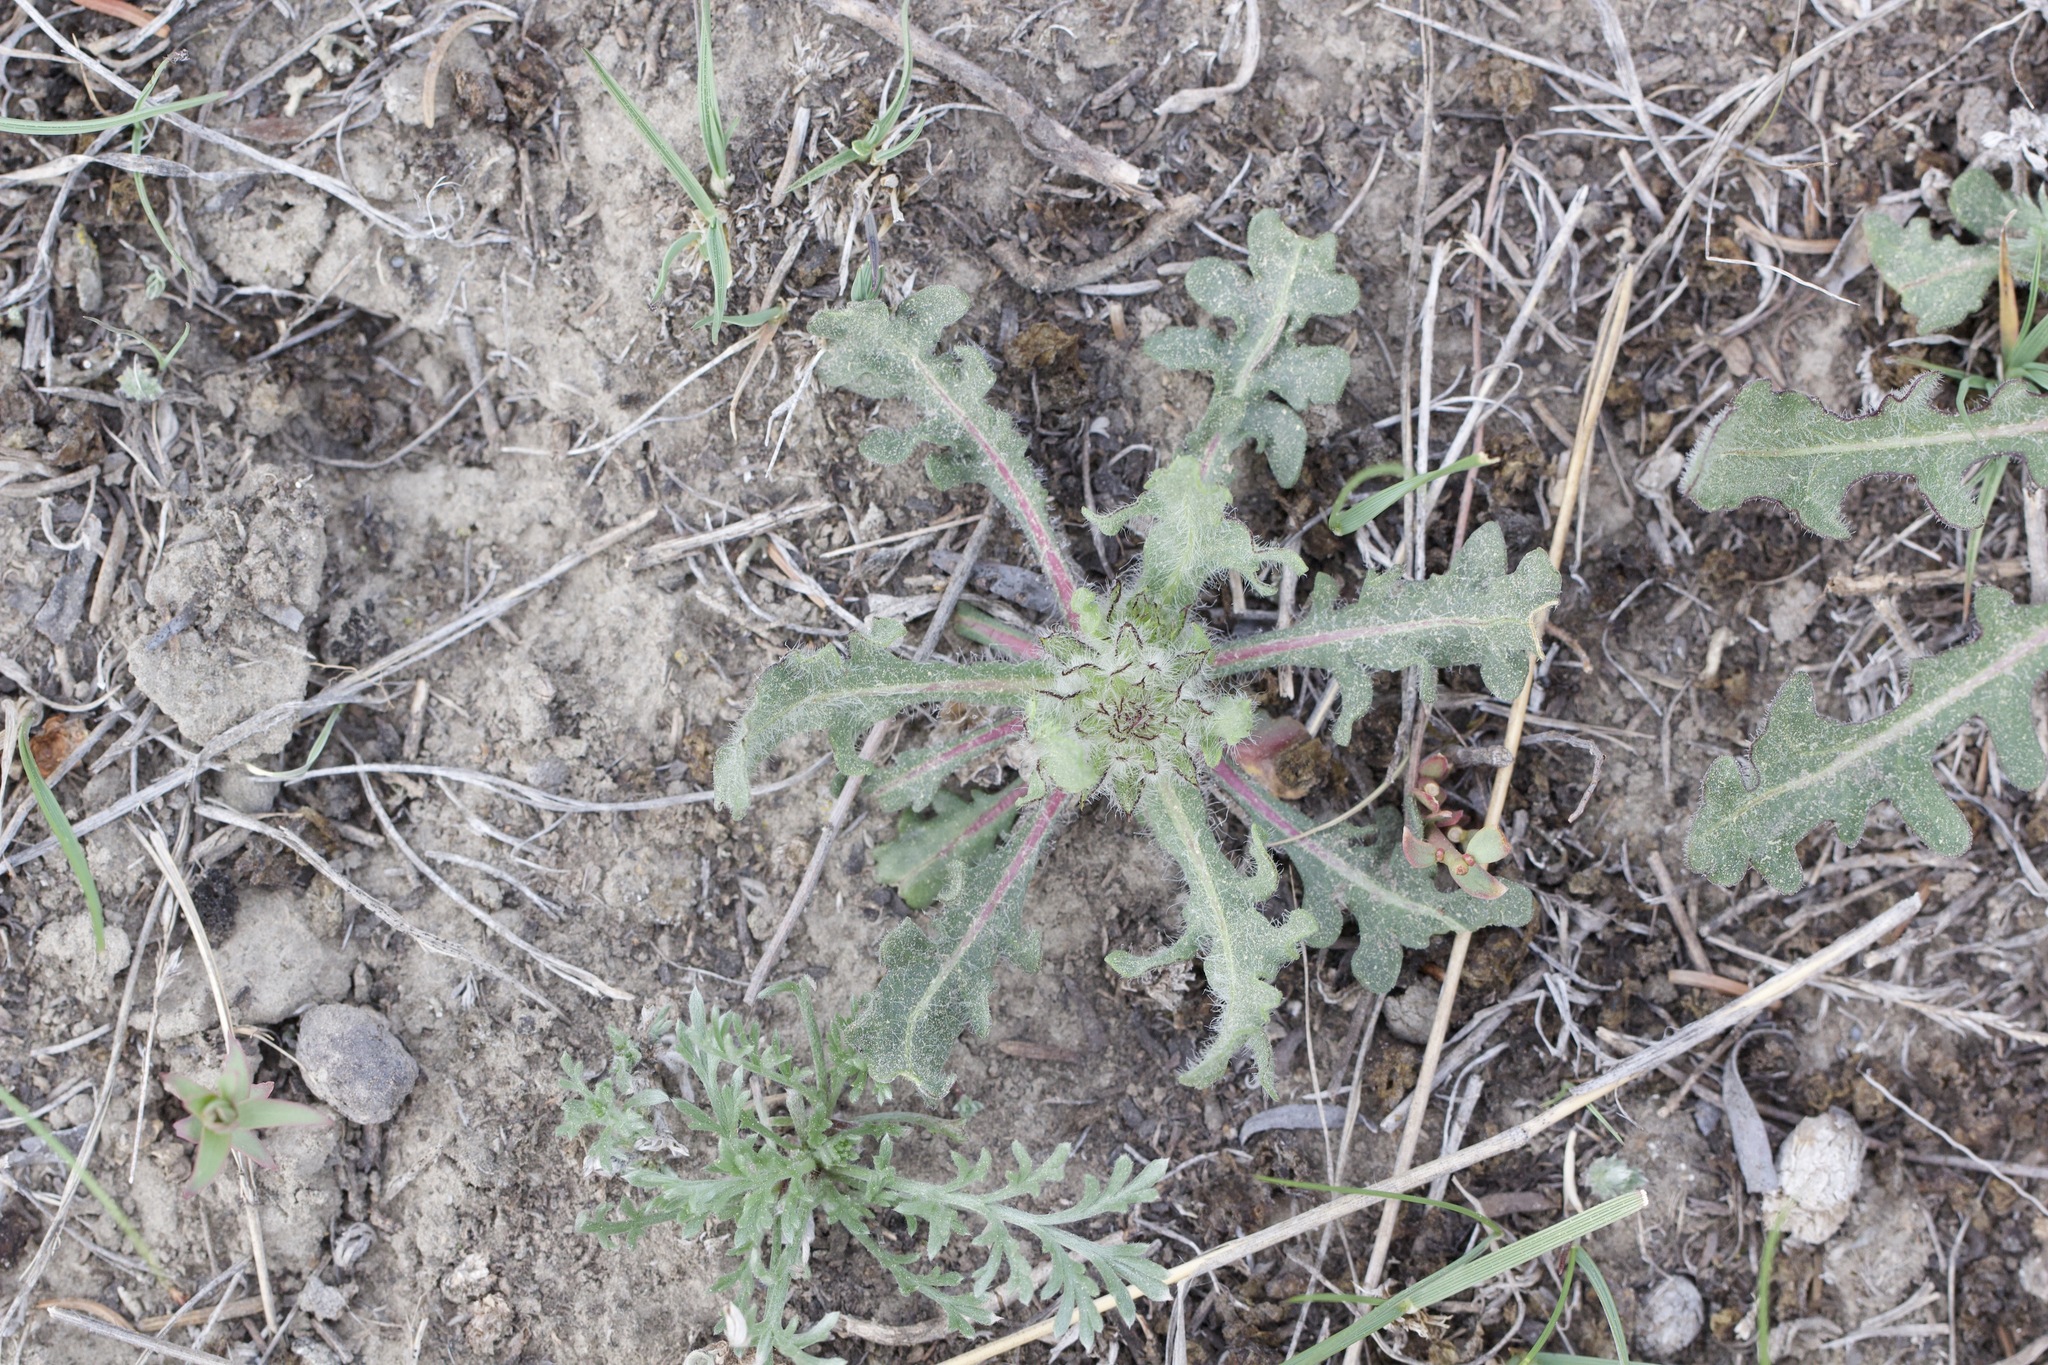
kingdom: Plantae
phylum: Tracheophyta
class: Magnoliopsida
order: Asterales
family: Asteraceae
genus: Gaillardia
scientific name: Gaillardia aristata
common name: Blanket-flower
